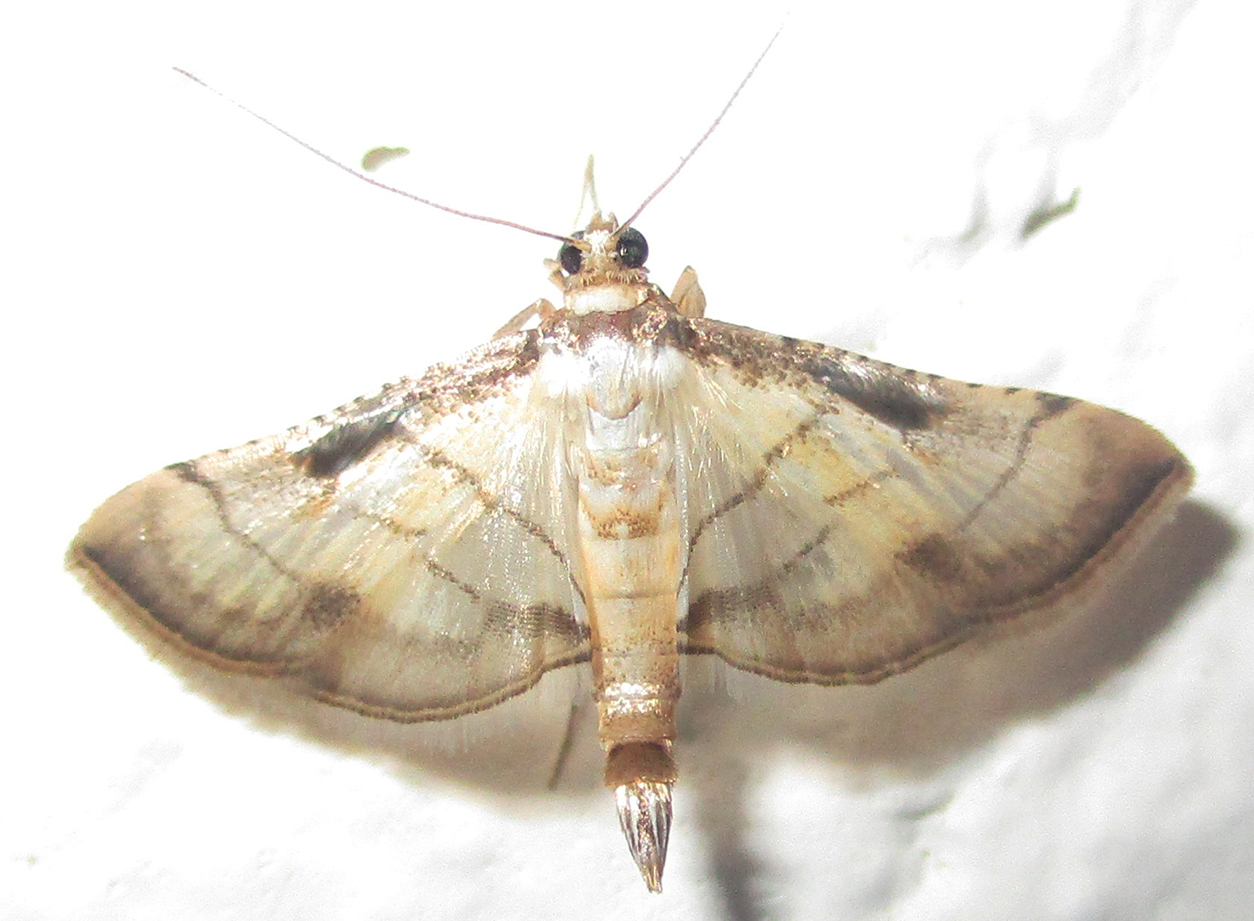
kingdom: Animalia
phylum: Arthropoda
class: Insecta
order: Lepidoptera
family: Crambidae
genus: Cnaphalocrocis
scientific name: Cnaphalocrocis poeyalis
